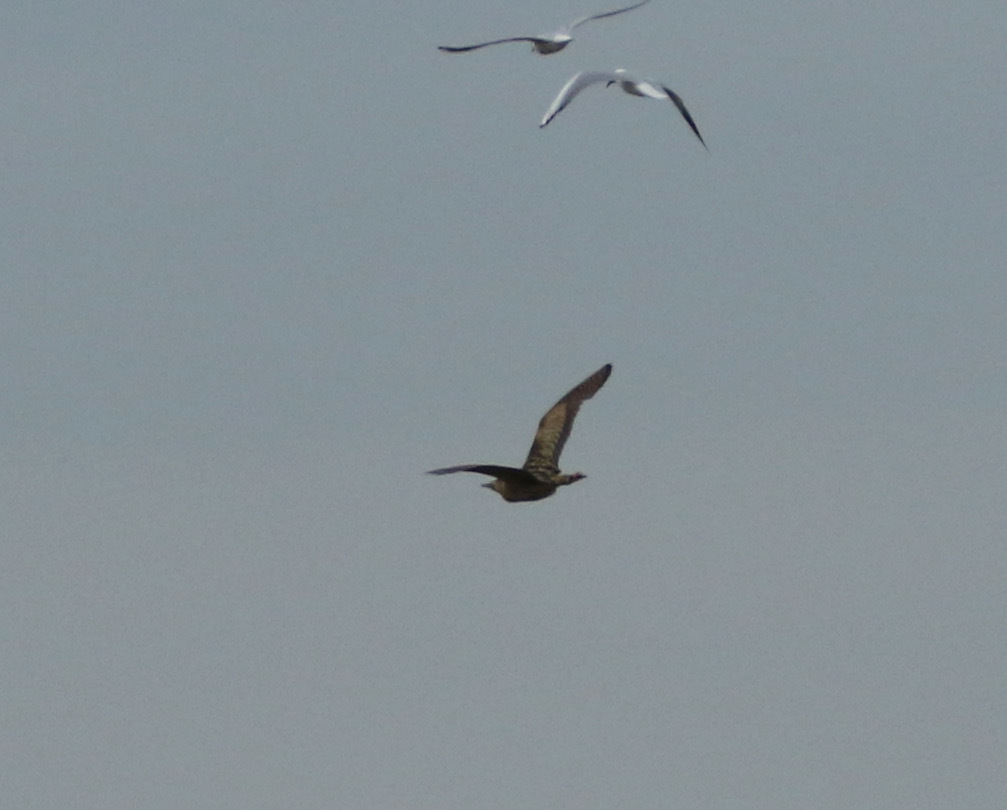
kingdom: Animalia
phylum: Chordata
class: Aves
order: Pelecaniformes
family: Ardeidae
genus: Botaurus
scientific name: Botaurus stellaris
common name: Eurasian bittern
